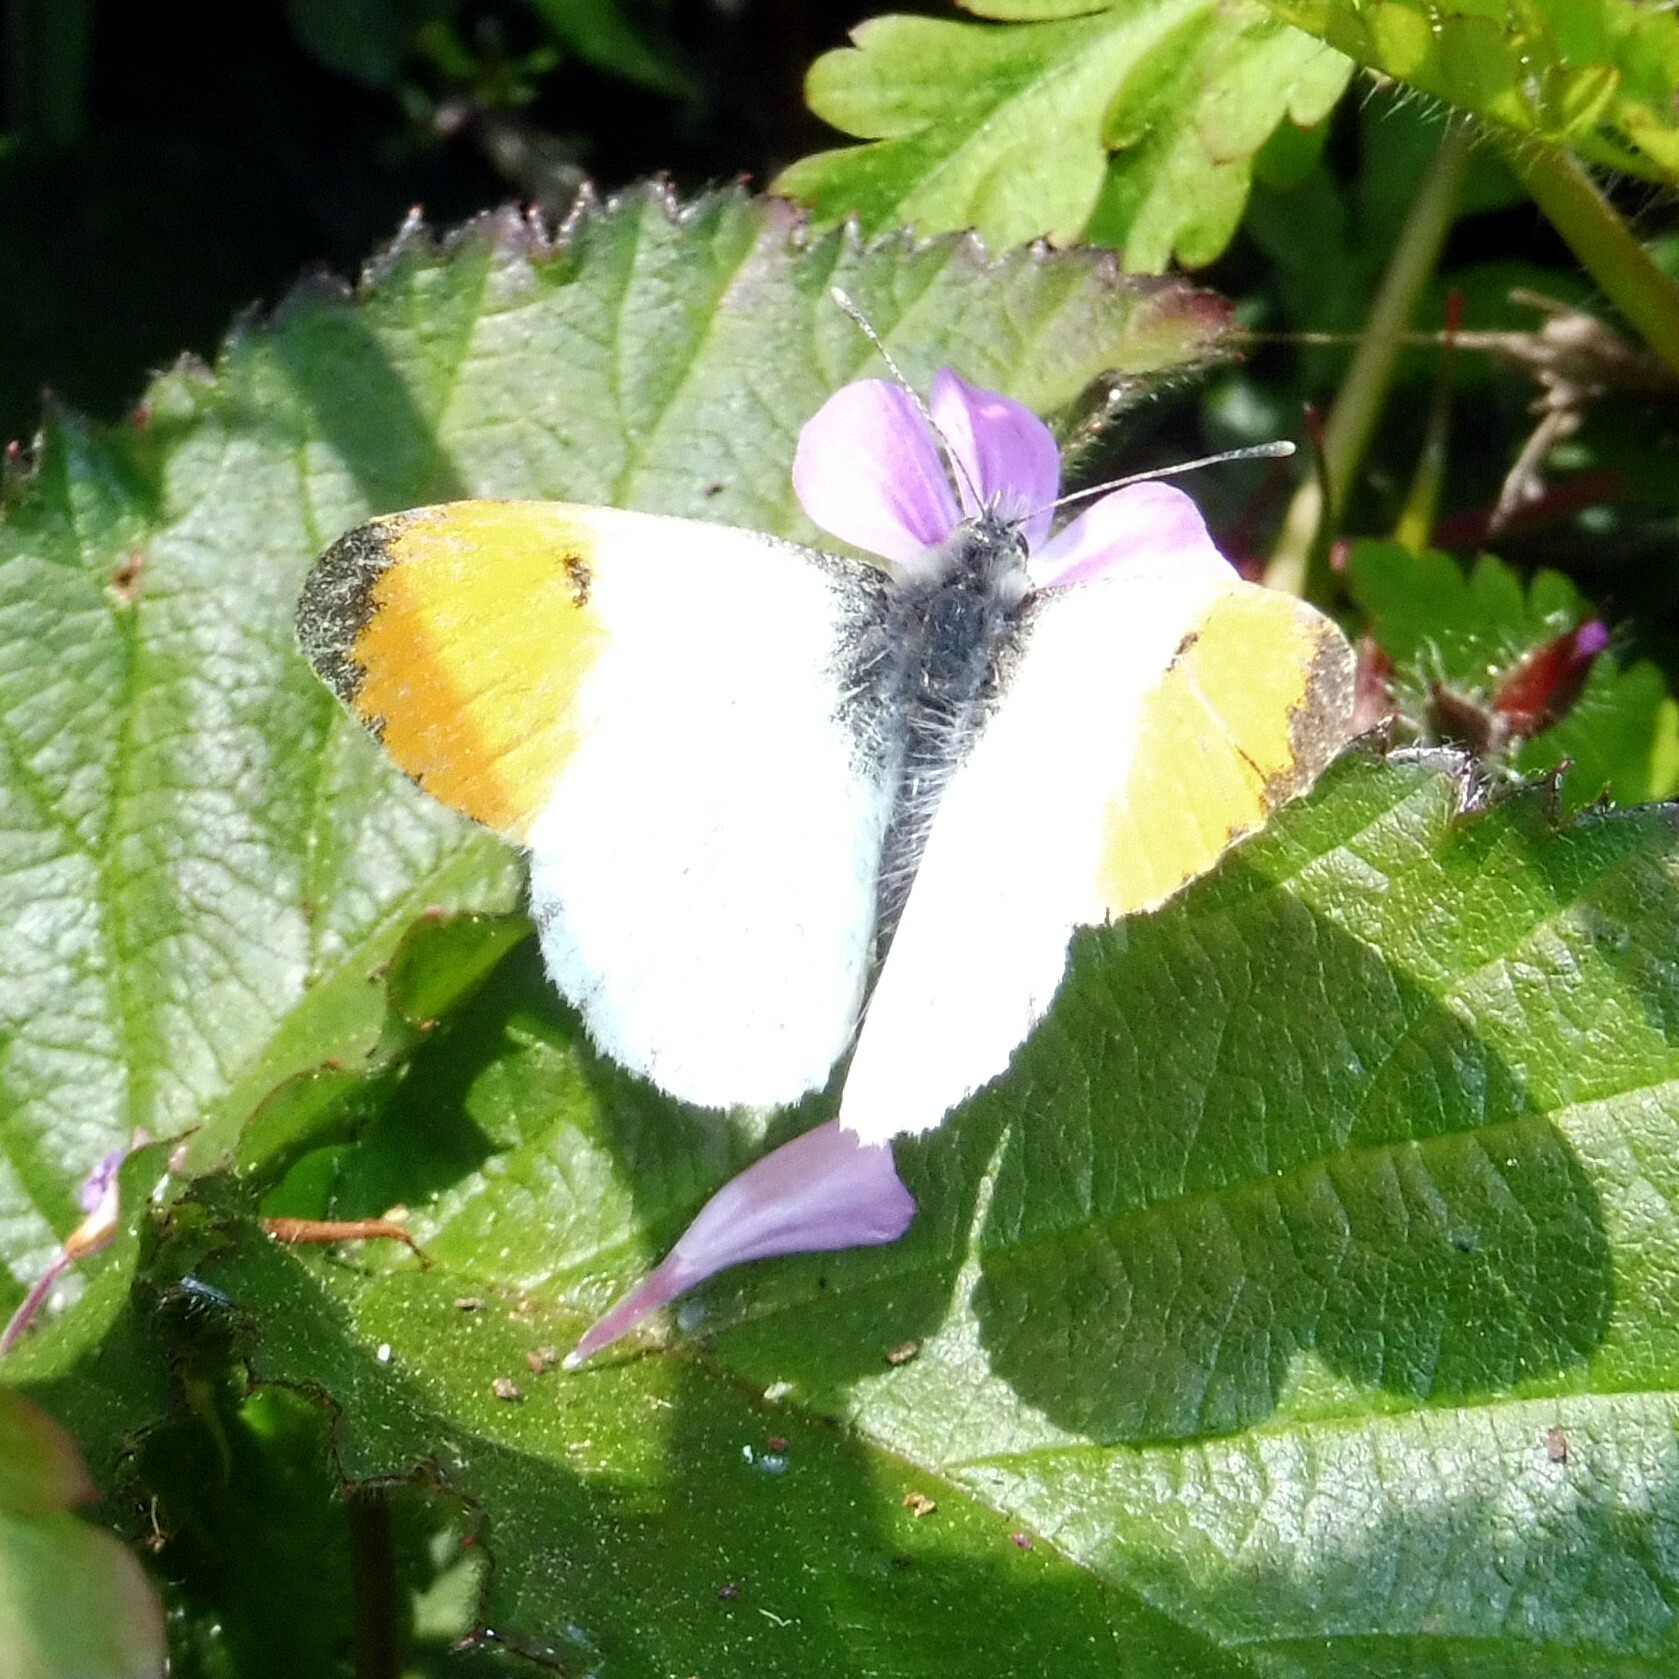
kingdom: Animalia
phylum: Arthropoda
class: Insecta
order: Lepidoptera
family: Pieridae
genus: Anthocharis
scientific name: Anthocharis cardamines
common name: Orange-tip
